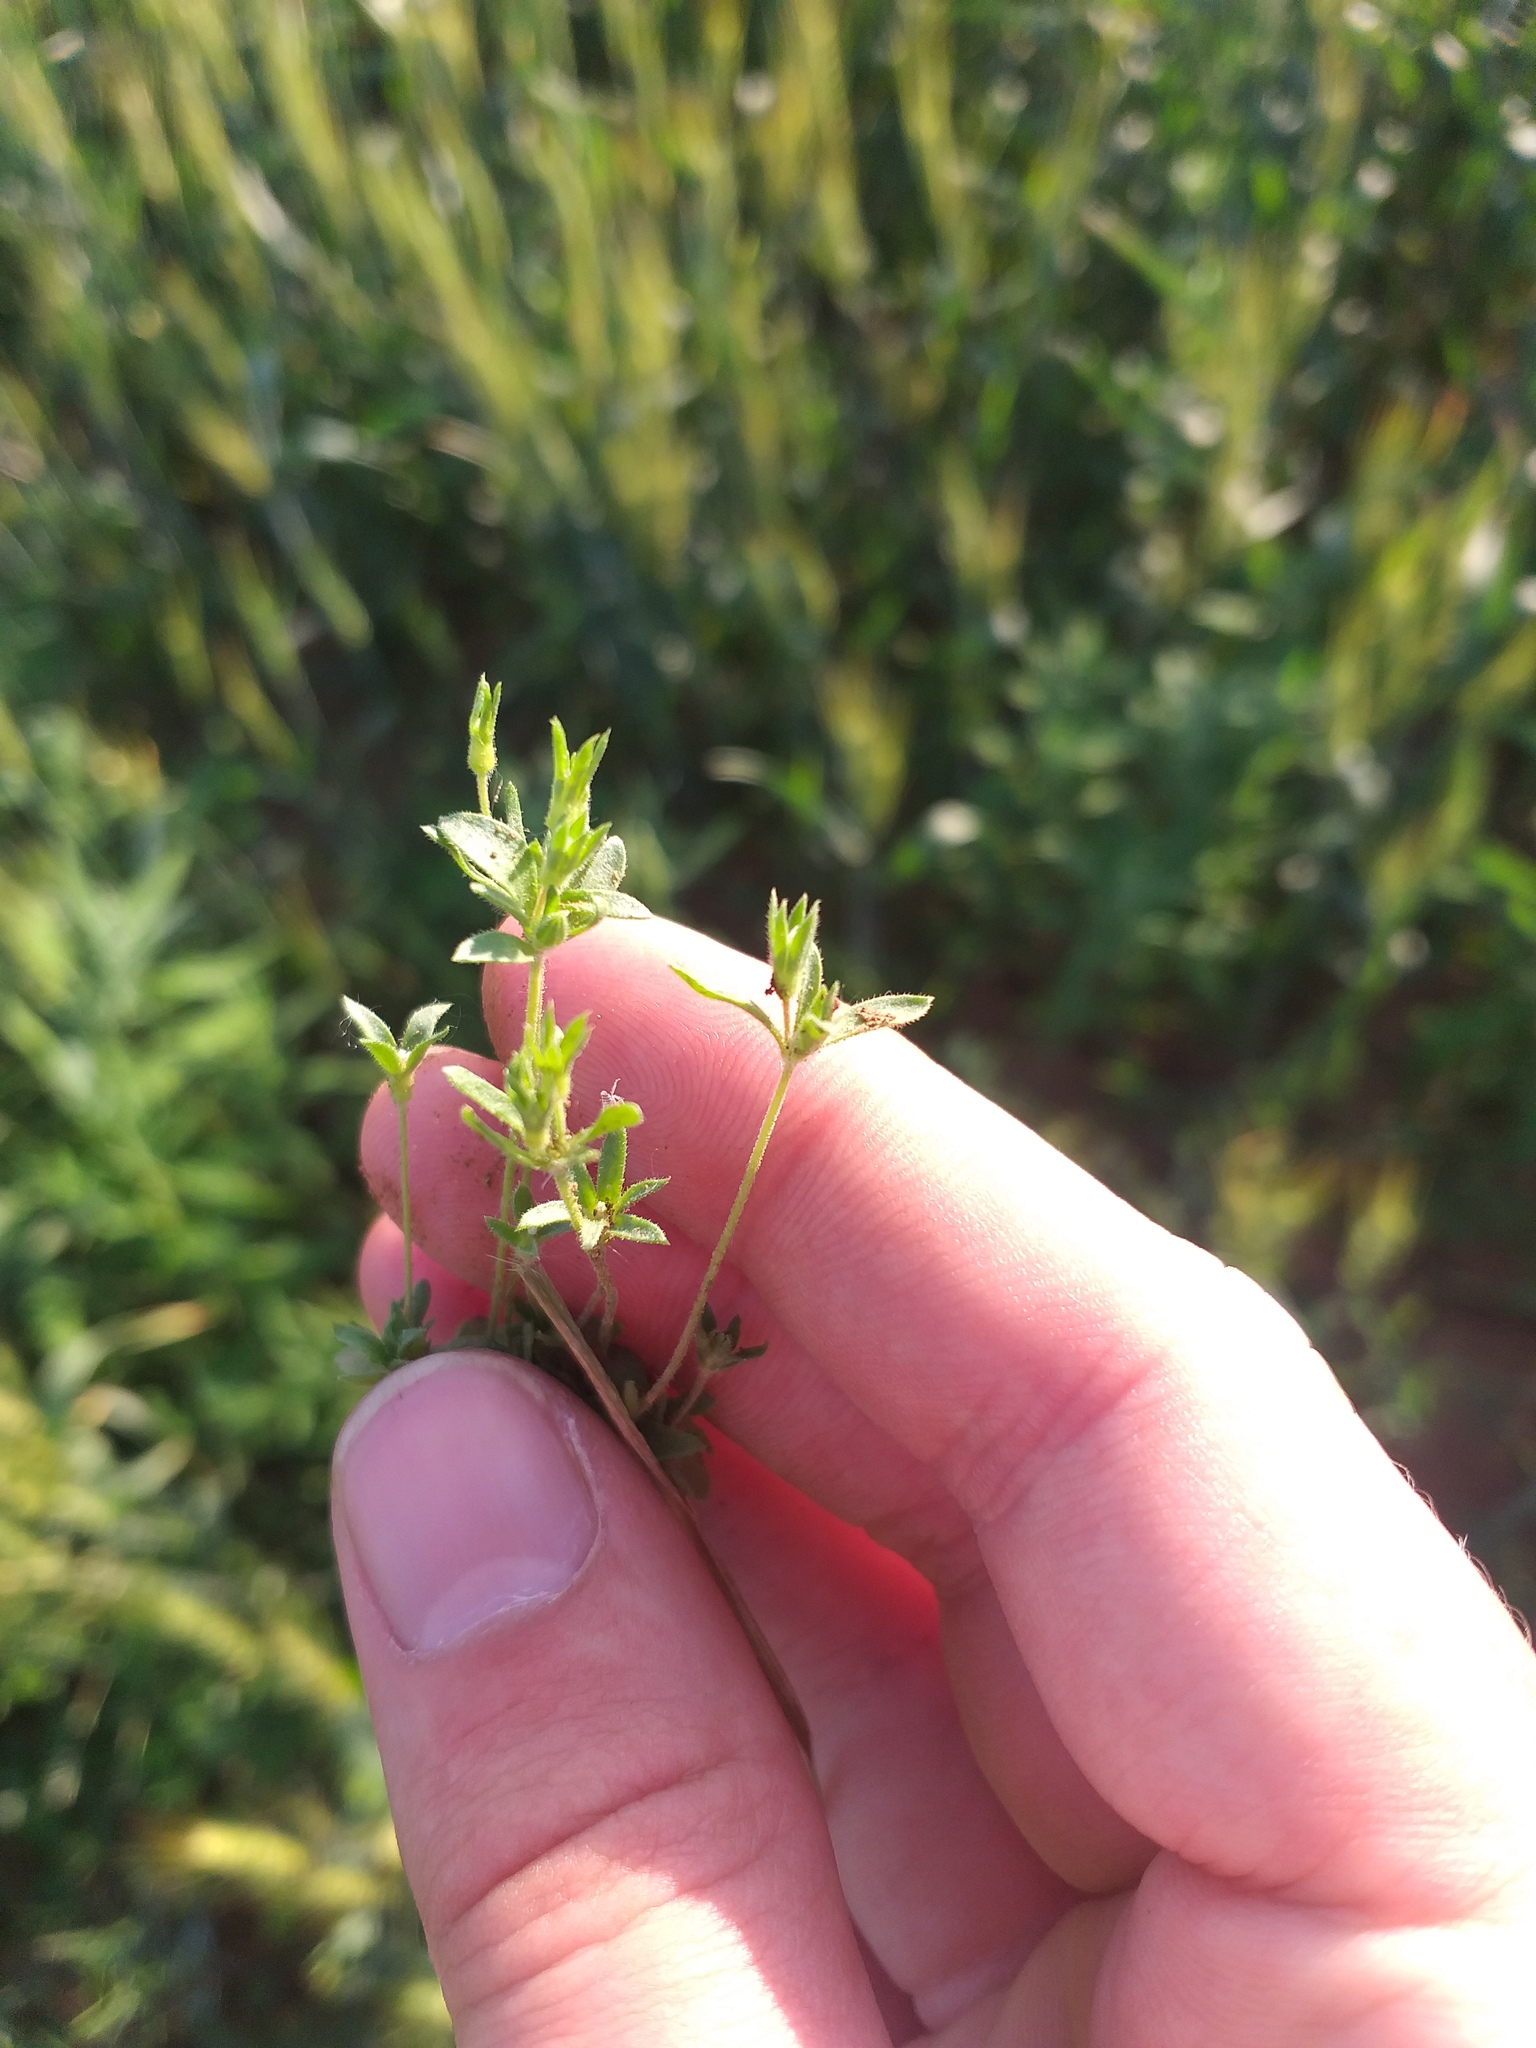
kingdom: Plantae
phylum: Tracheophyta
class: Magnoliopsida
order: Ericales
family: Primulaceae
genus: Androsace
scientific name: Androsace maxima
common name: Annual androsace
